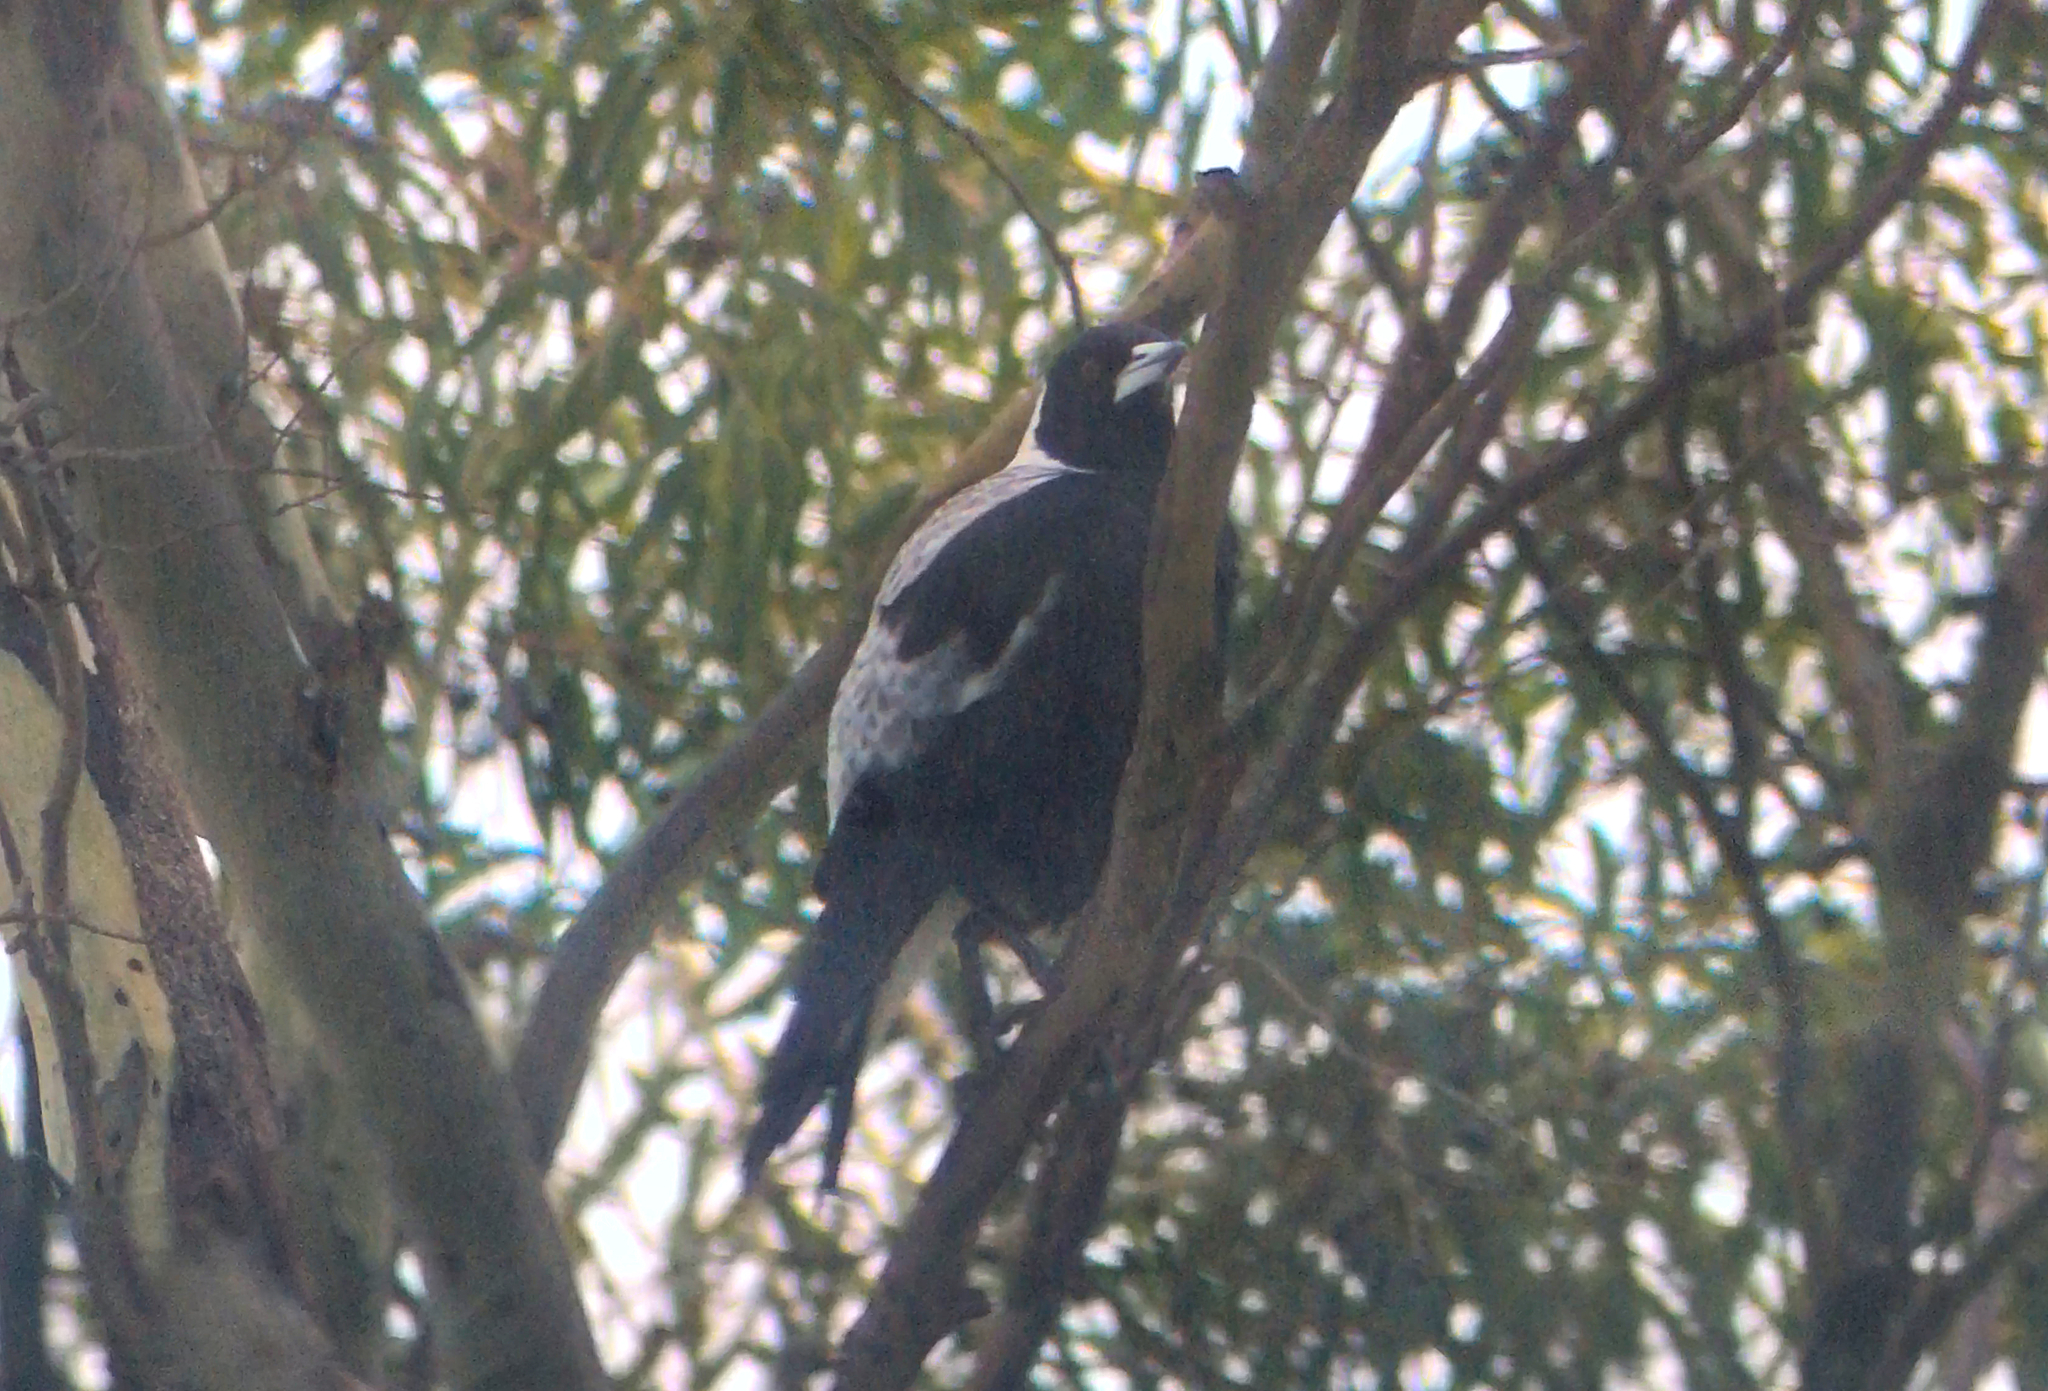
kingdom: Animalia
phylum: Chordata
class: Aves
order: Passeriformes
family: Cracticidae
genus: Gymnorhina
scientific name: Gymnorhina tibicen
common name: Australian magpie
